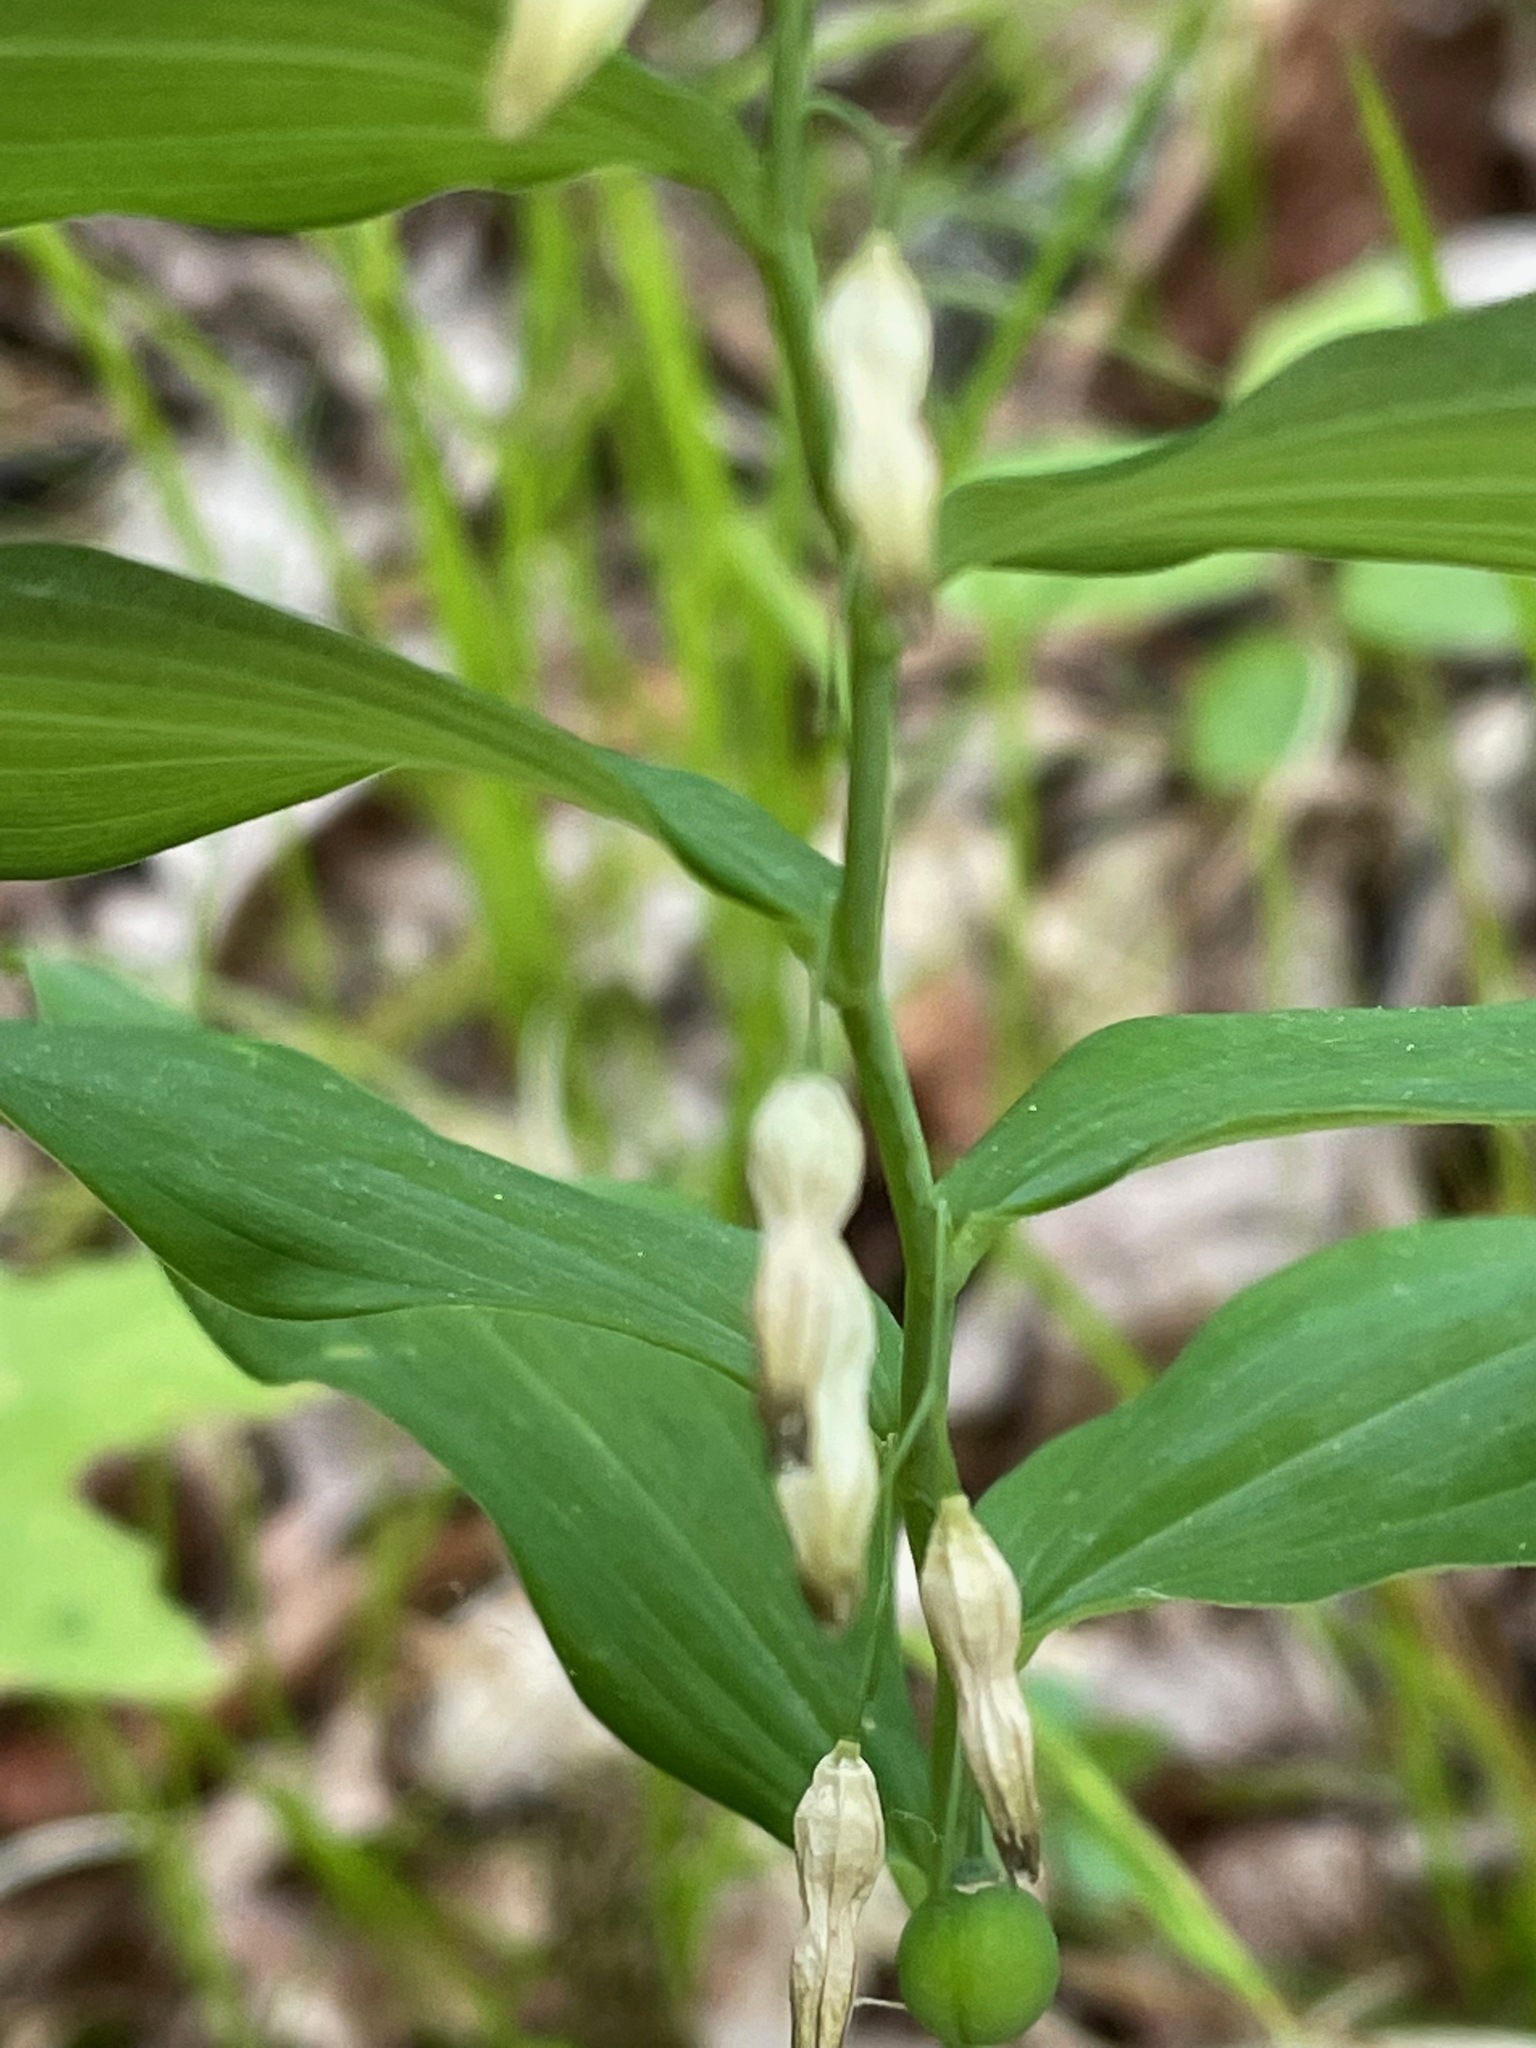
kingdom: Plantae
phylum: Tracheophyta
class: Liliopsida
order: Asparagales
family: Asparagaceae
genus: Polygonatum
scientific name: Polygonatum pubescens
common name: Downy solomon's seal
